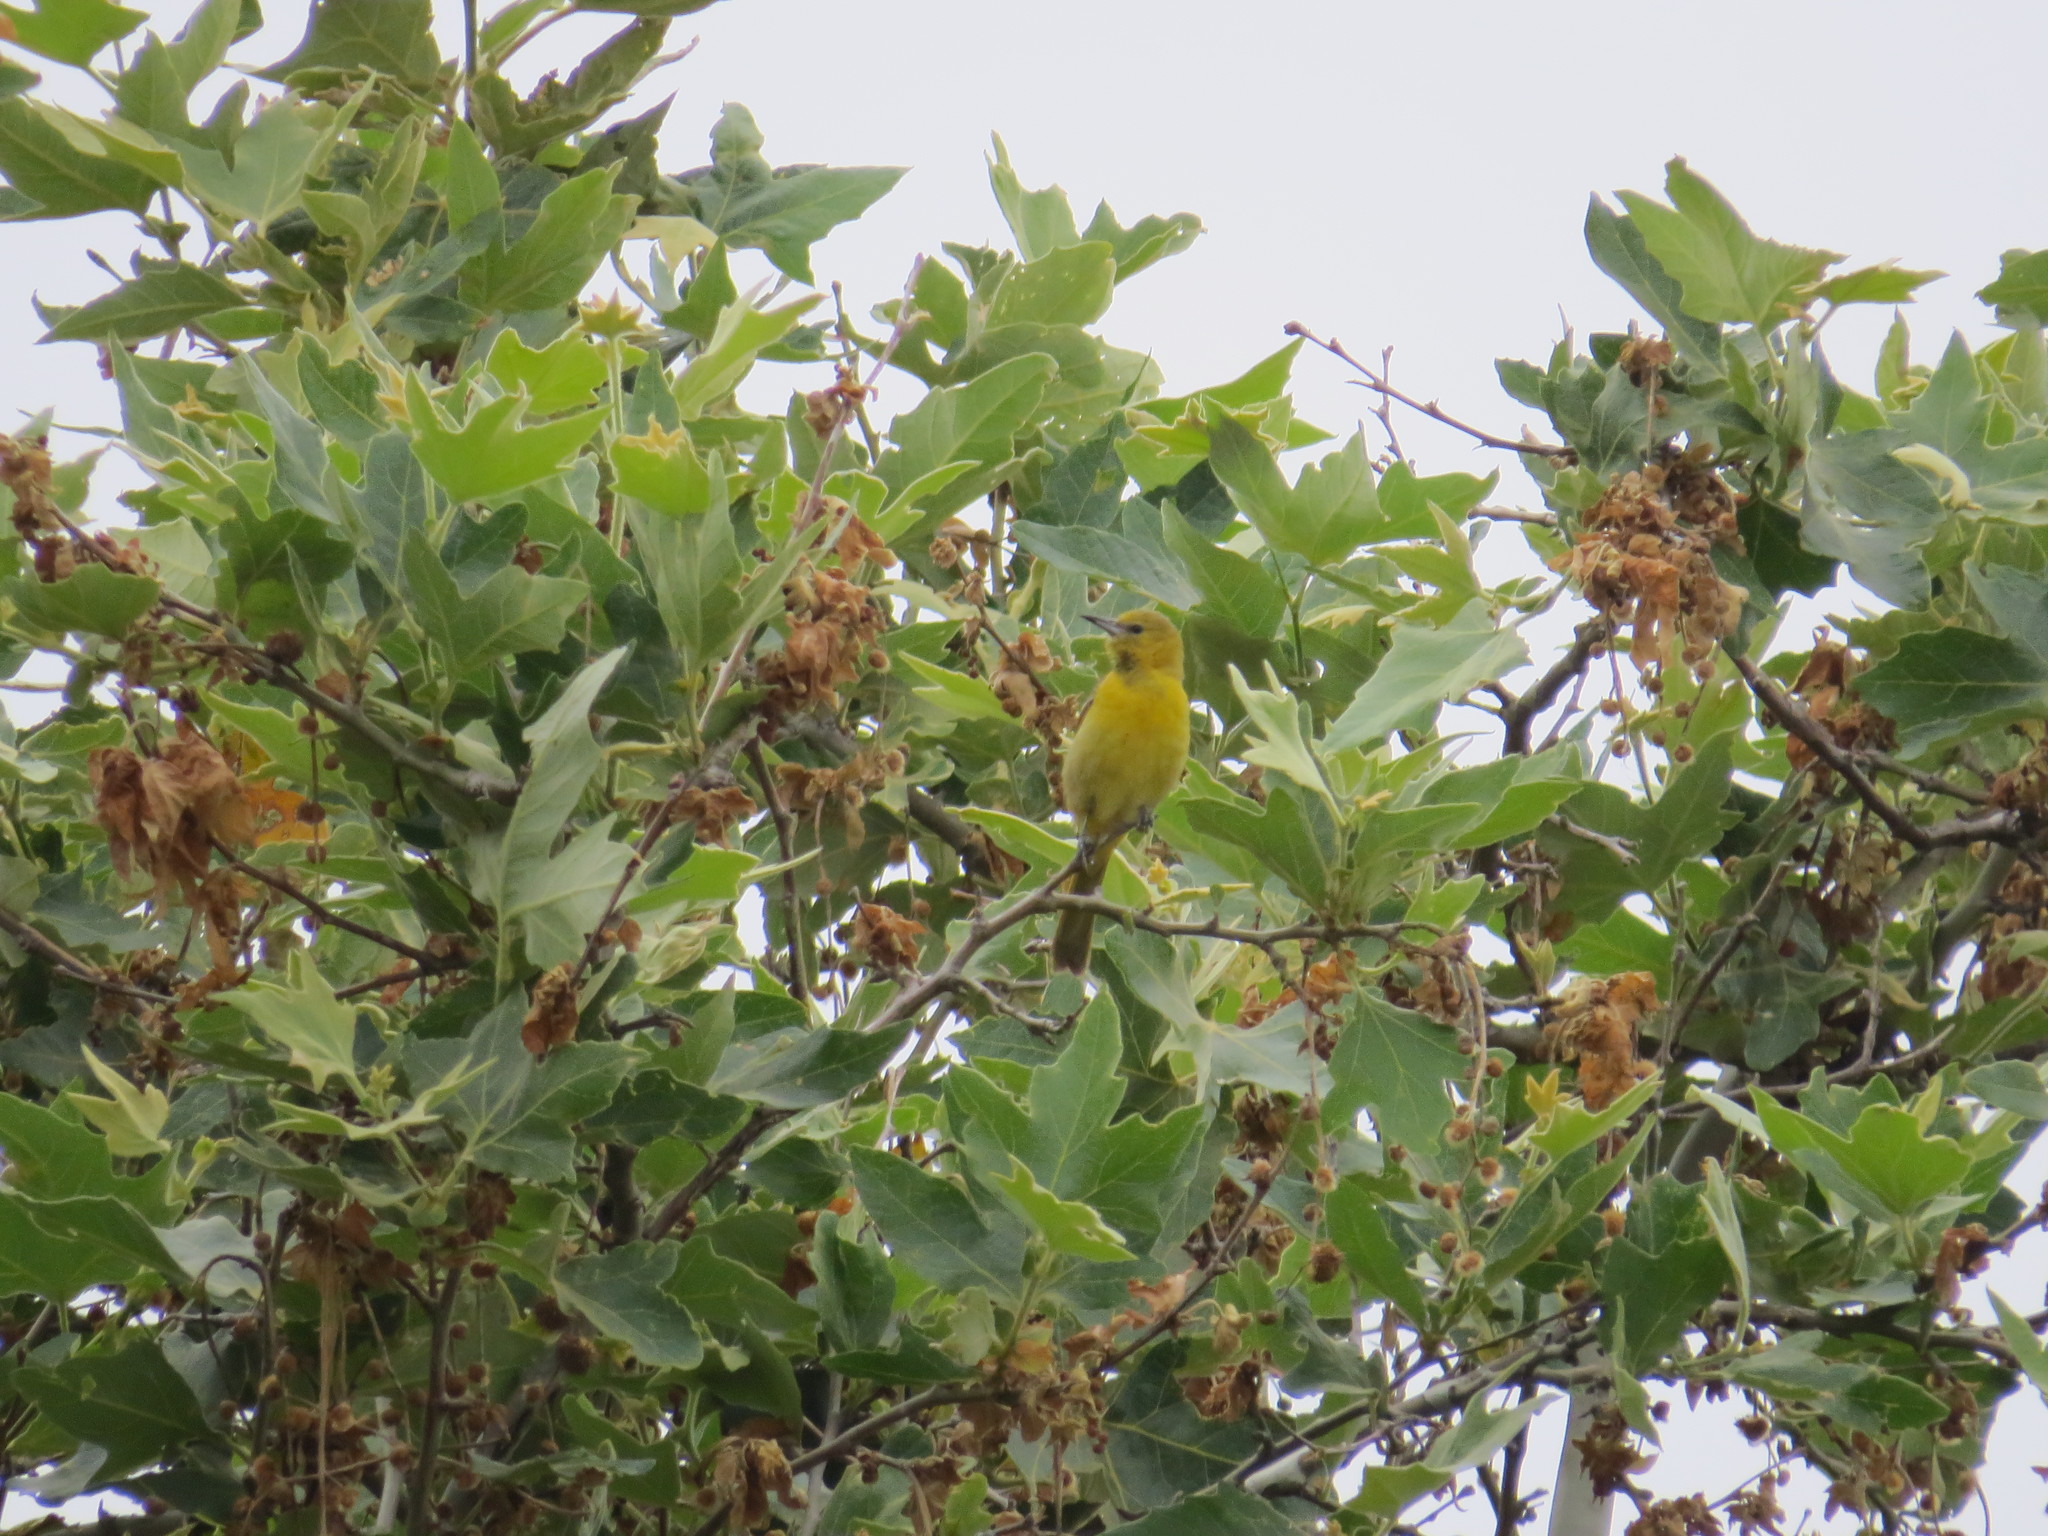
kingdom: Animalia
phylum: Chordata
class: Aves
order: Passeriformes
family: Icteridae
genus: Icterus
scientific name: Icterus cucullatus
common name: Hooded oriole
